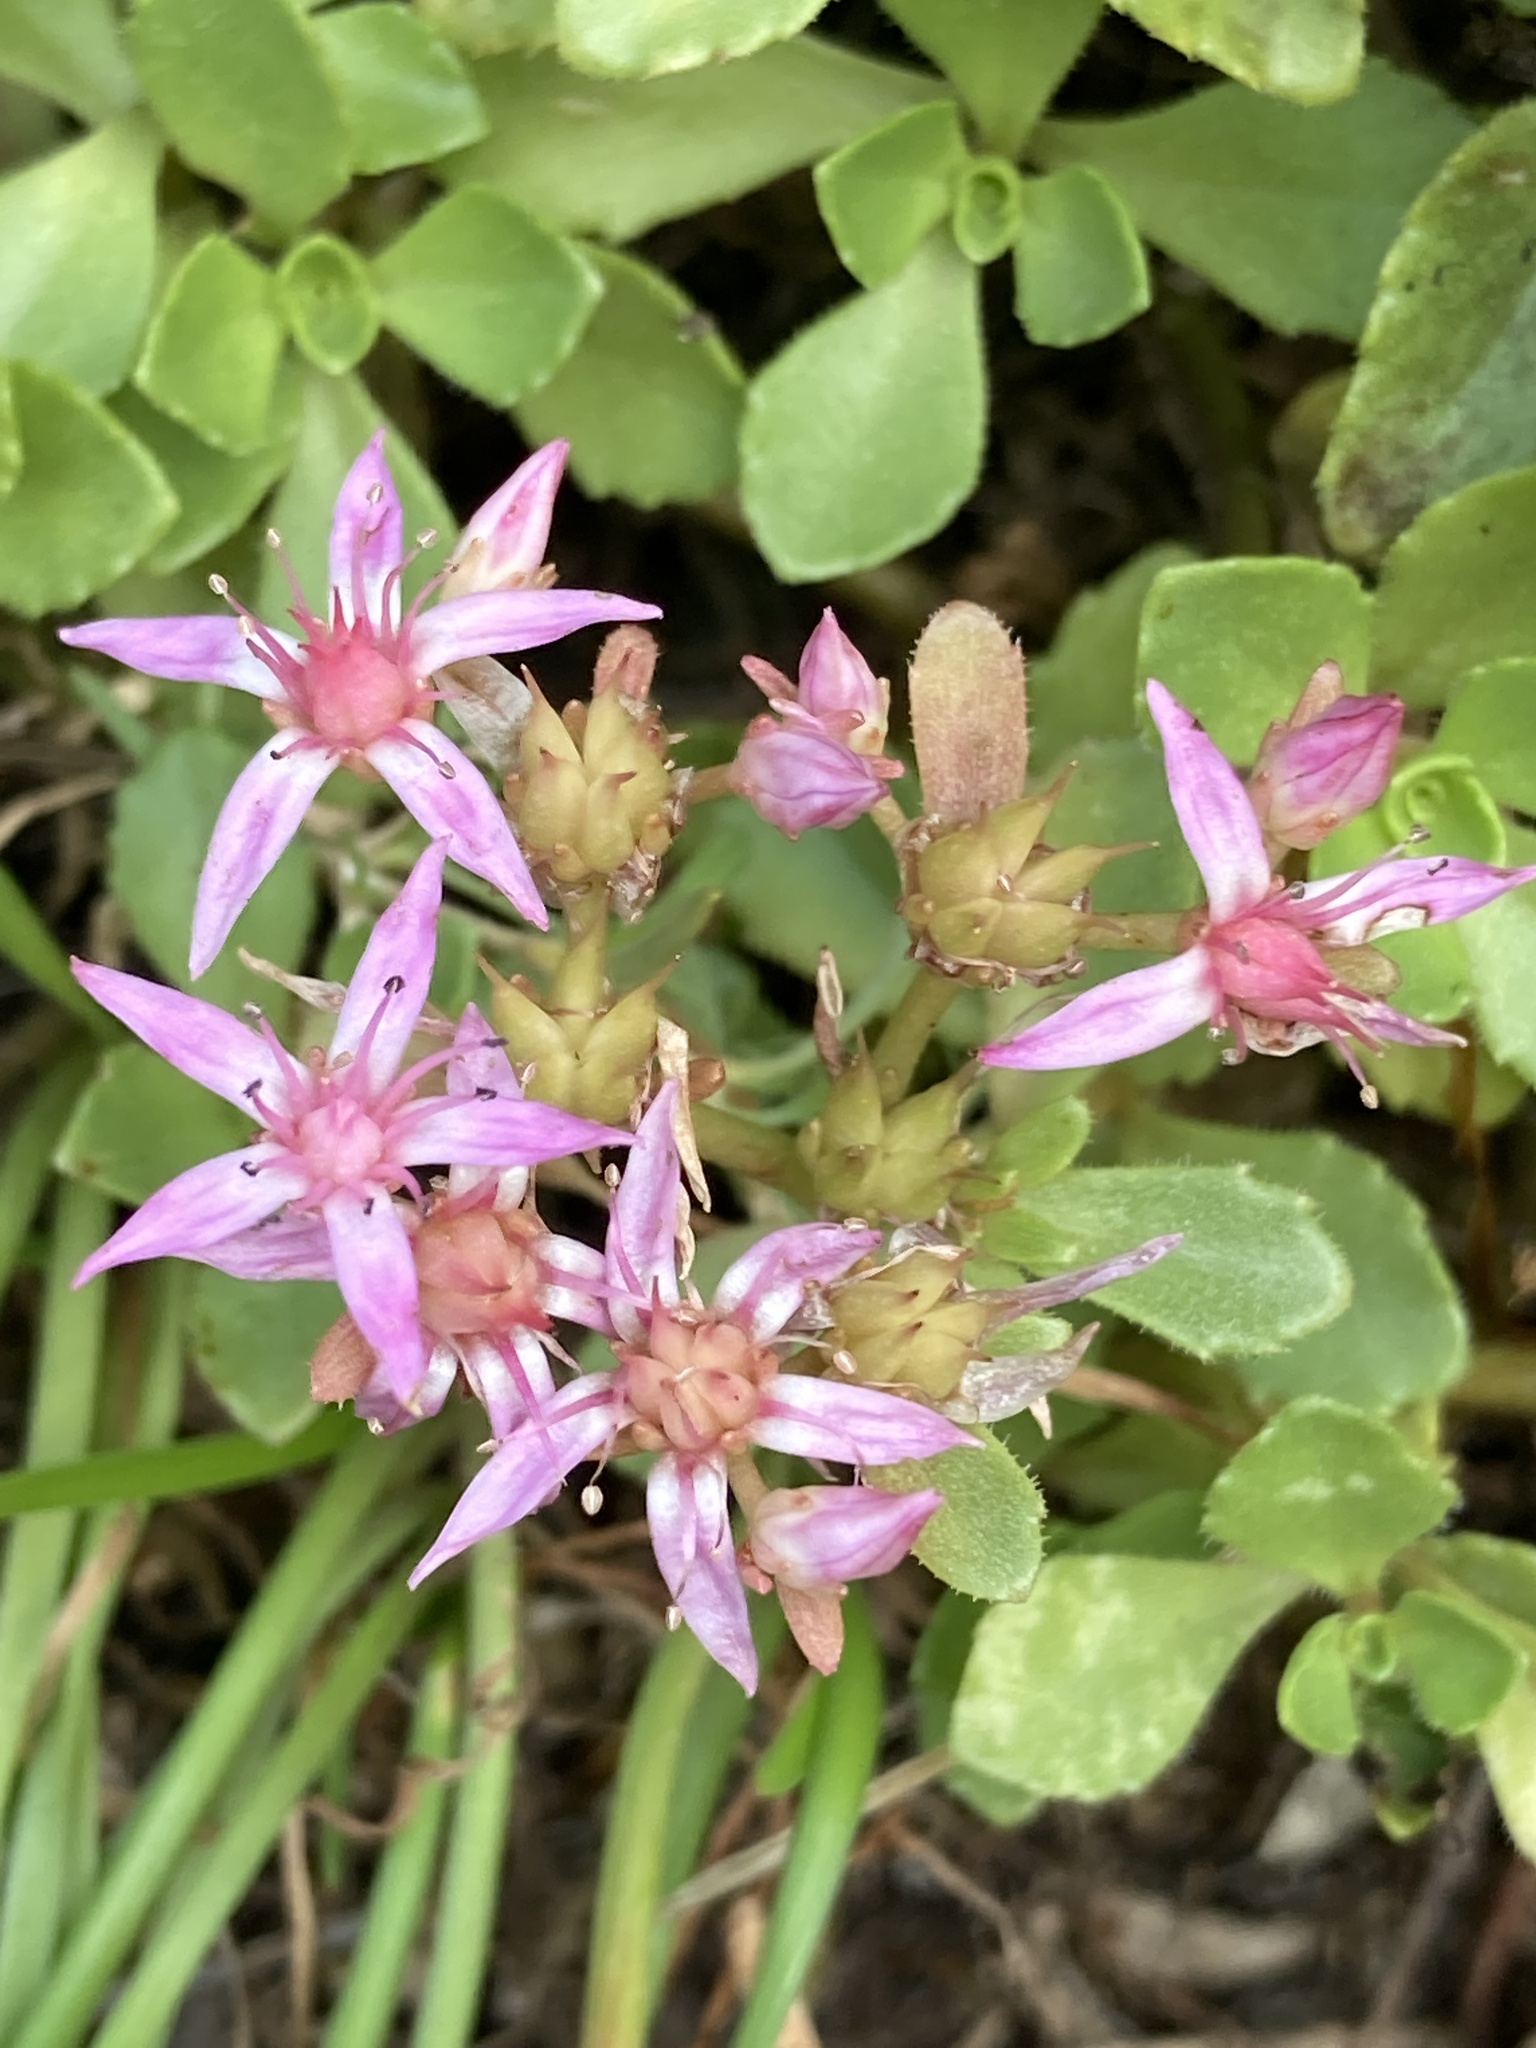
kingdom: Plantae
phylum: Tracheophyta
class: Magnoliopsida
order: Saxifragales
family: Crassulaceae
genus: Phedimus
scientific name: Phedimus spurius
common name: Caucasian stonecrop
